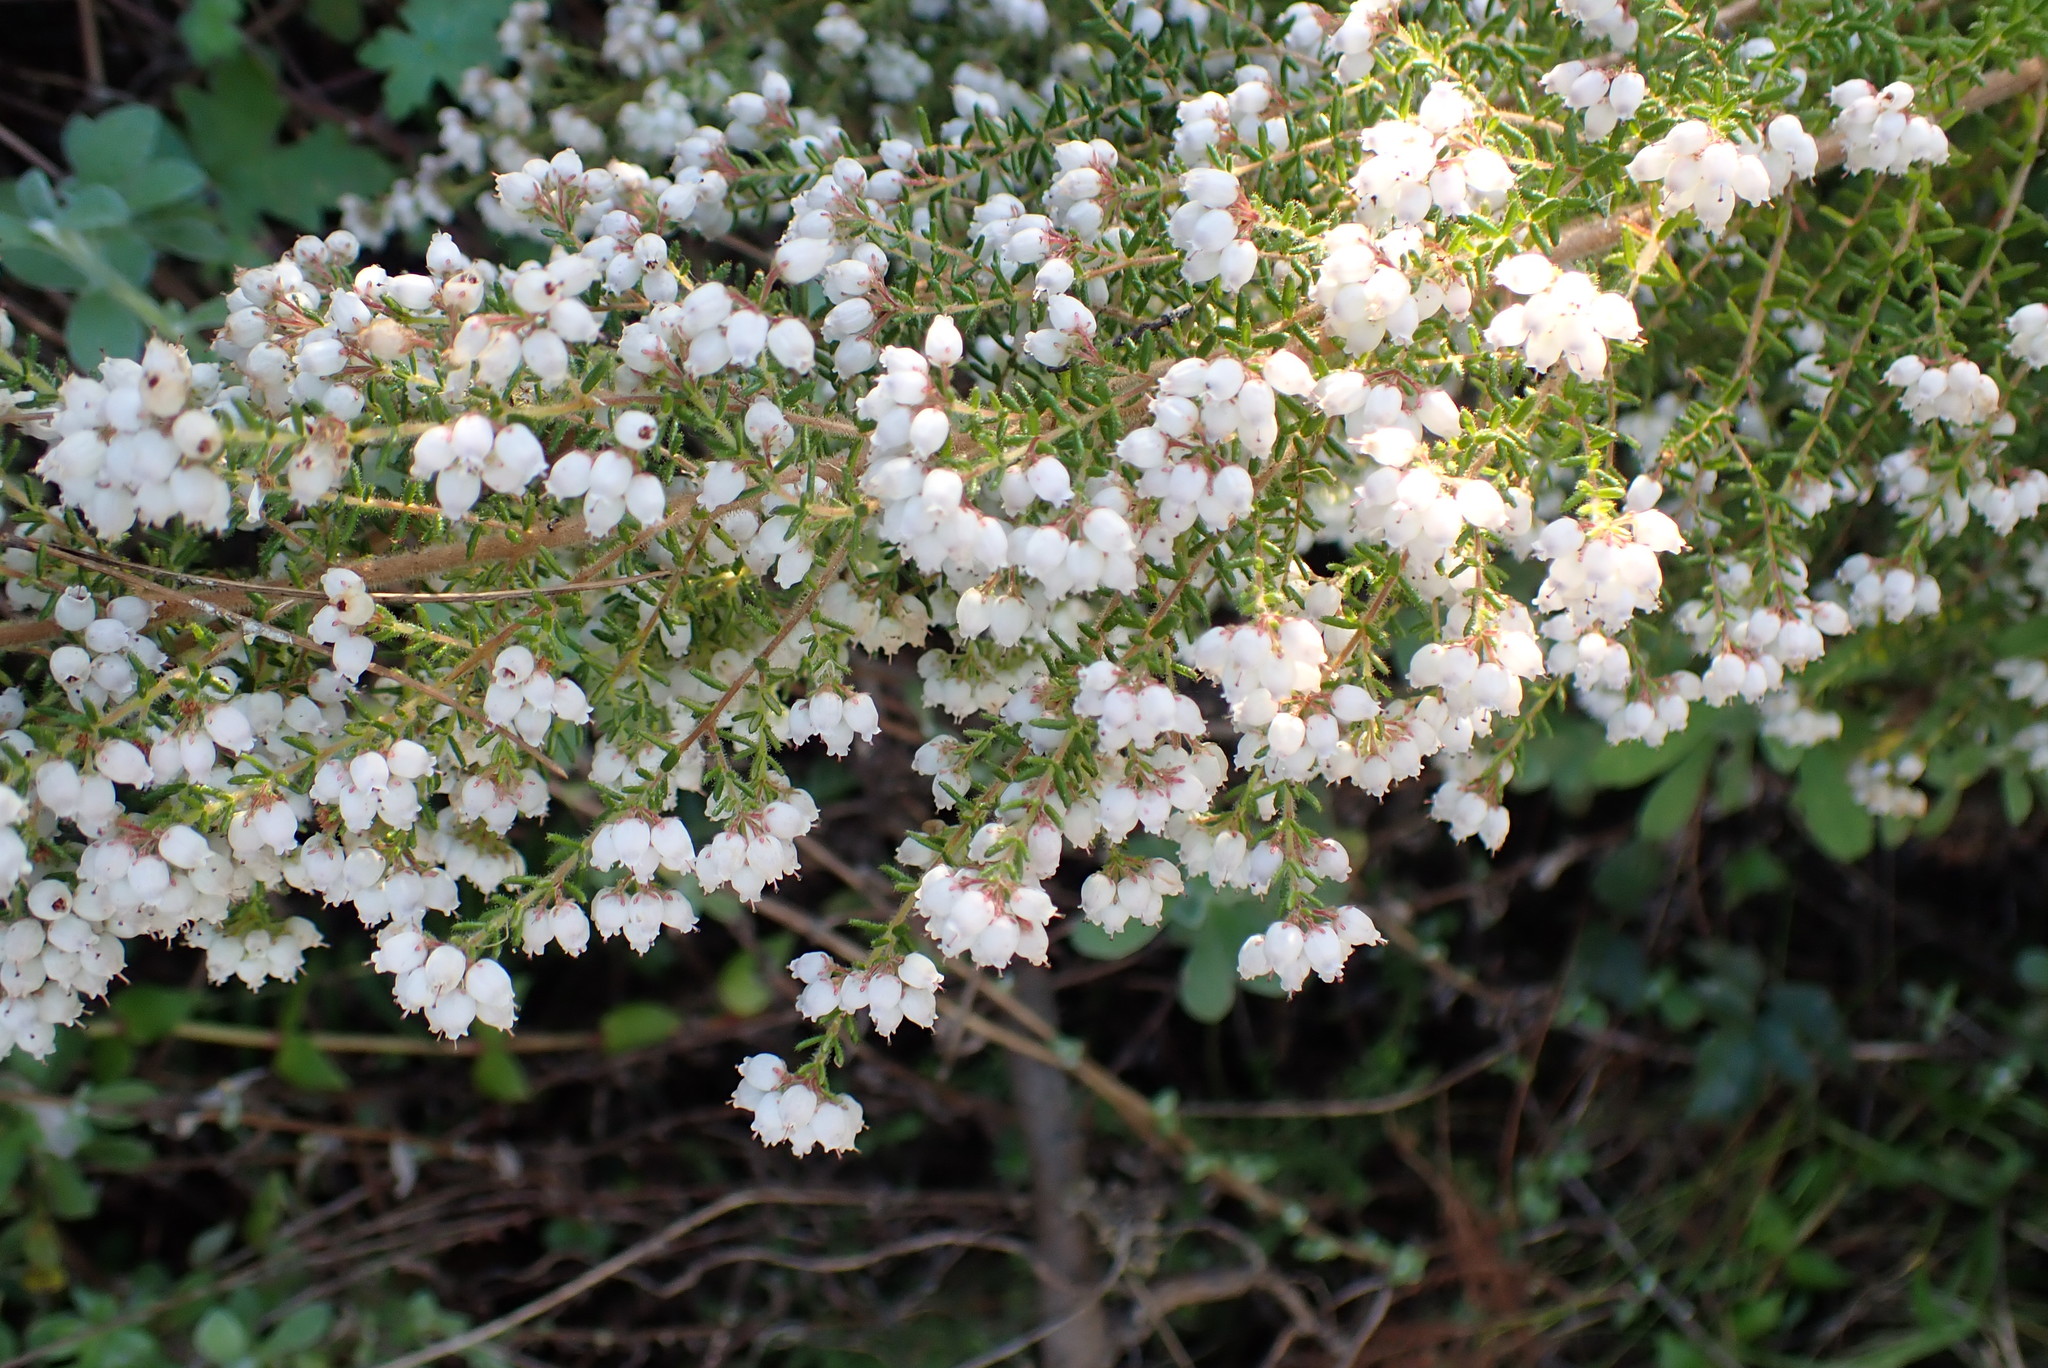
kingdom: Plantae
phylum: Tracheophyta
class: Magnoliopsida
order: Ericales
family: Ericaceae
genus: Erica
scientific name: Erica scabriuscula
